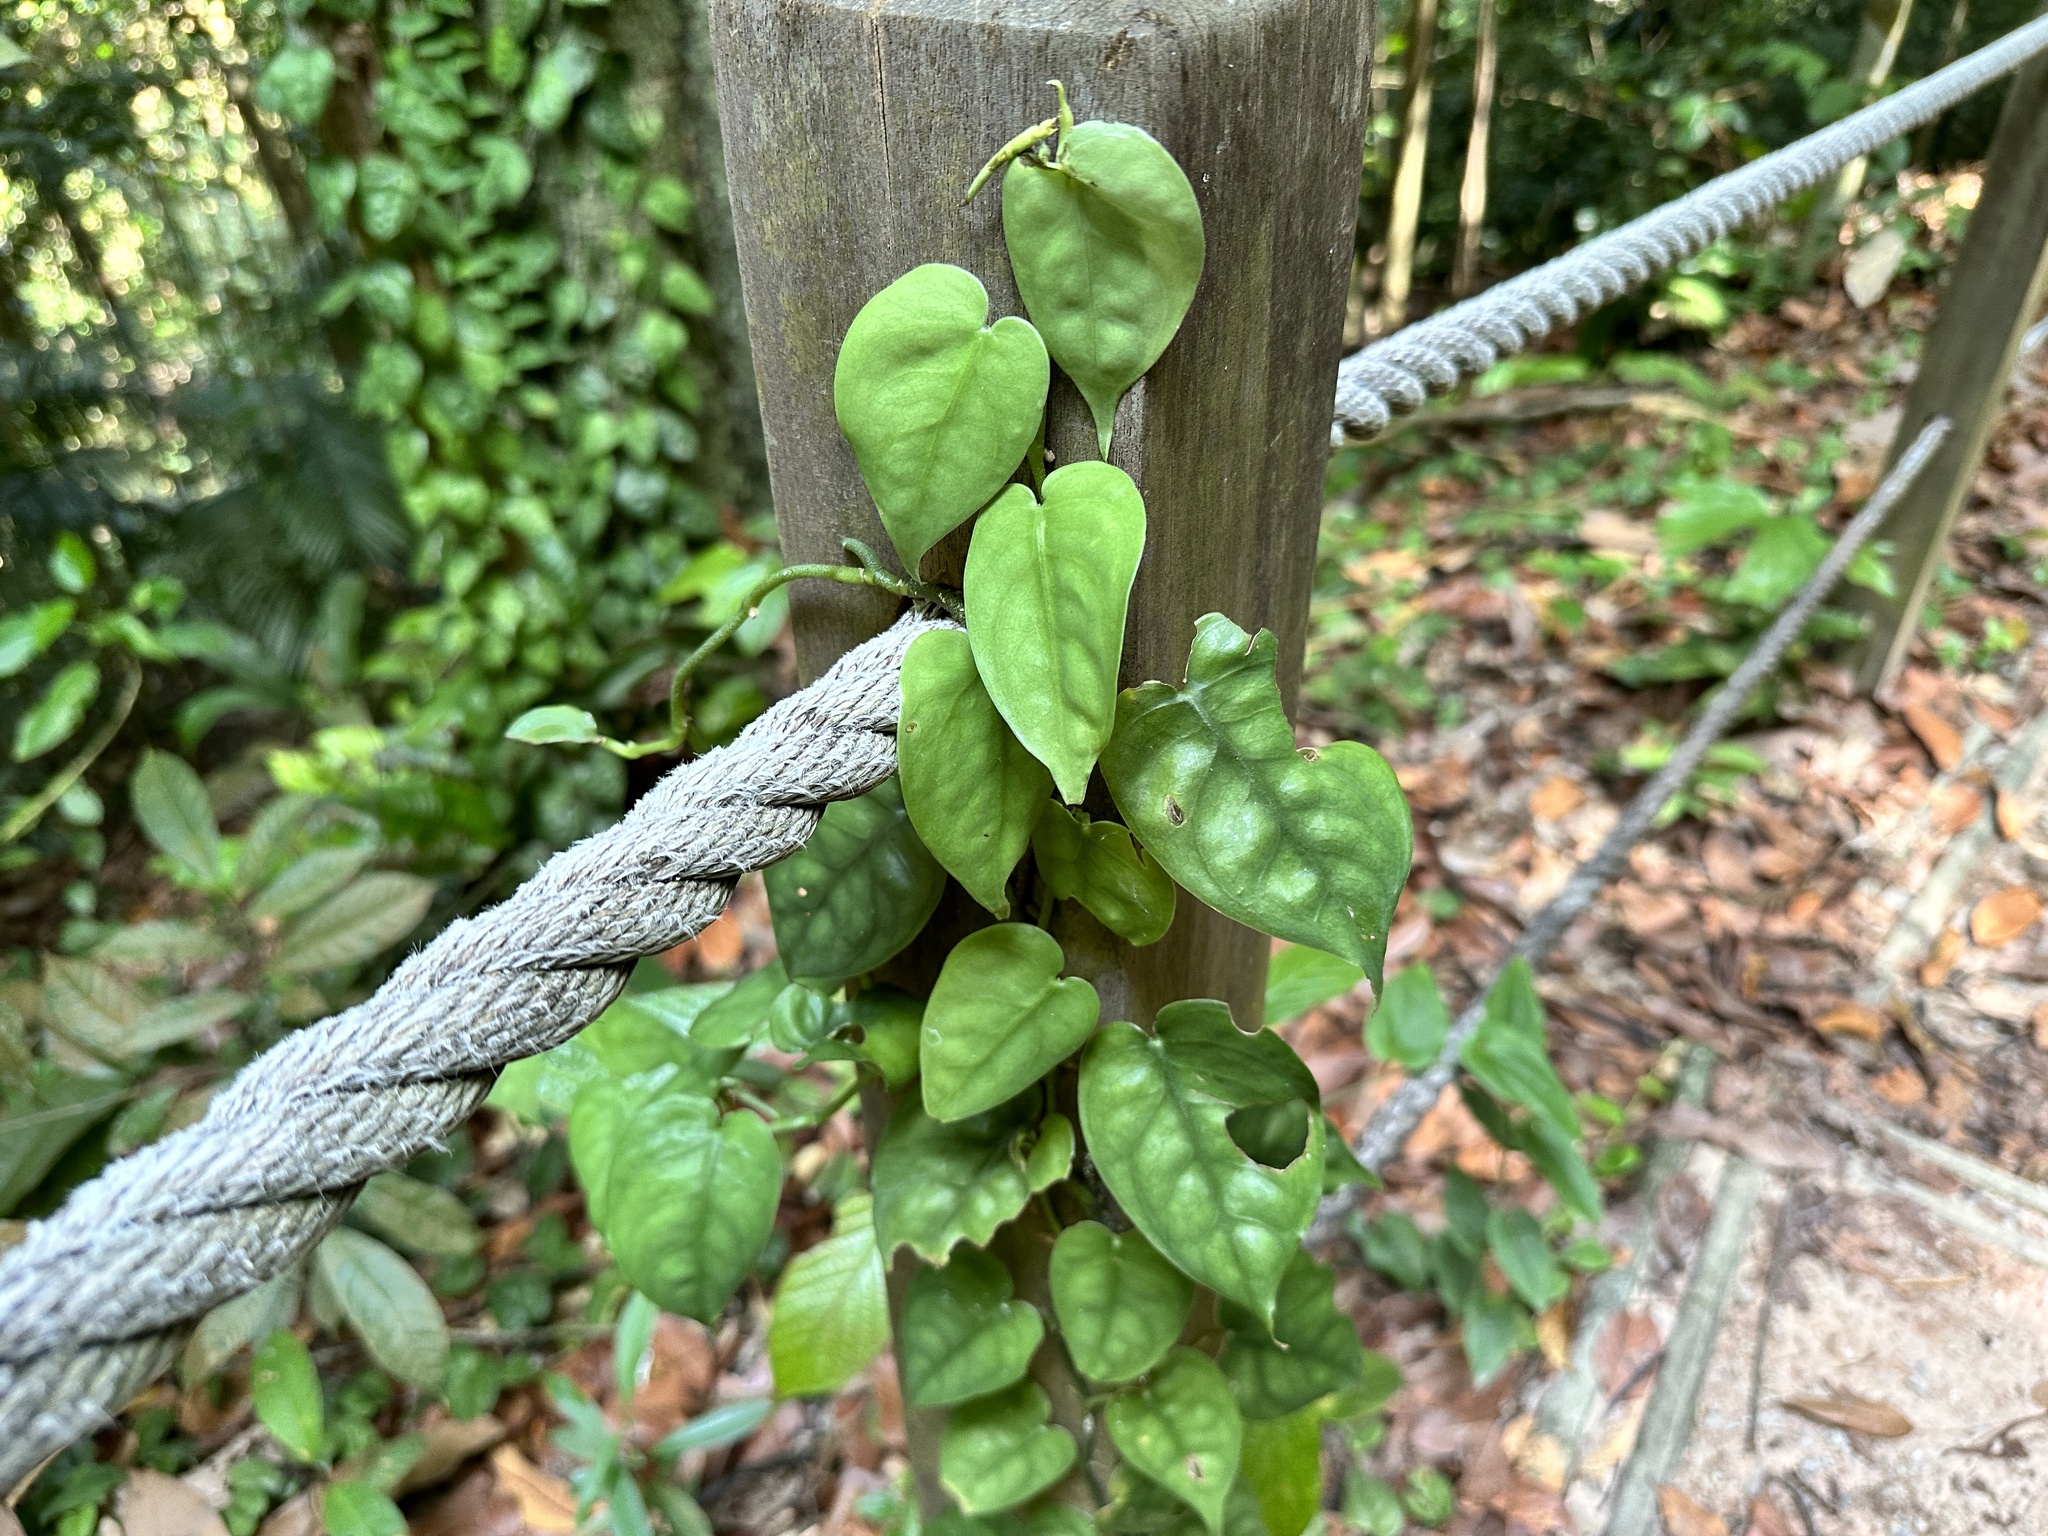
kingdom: Plantae
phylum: Tracheophyta
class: Liliopsida
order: Alismatales
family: Araceae
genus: Scindapsus
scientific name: Scindapsus lucens
